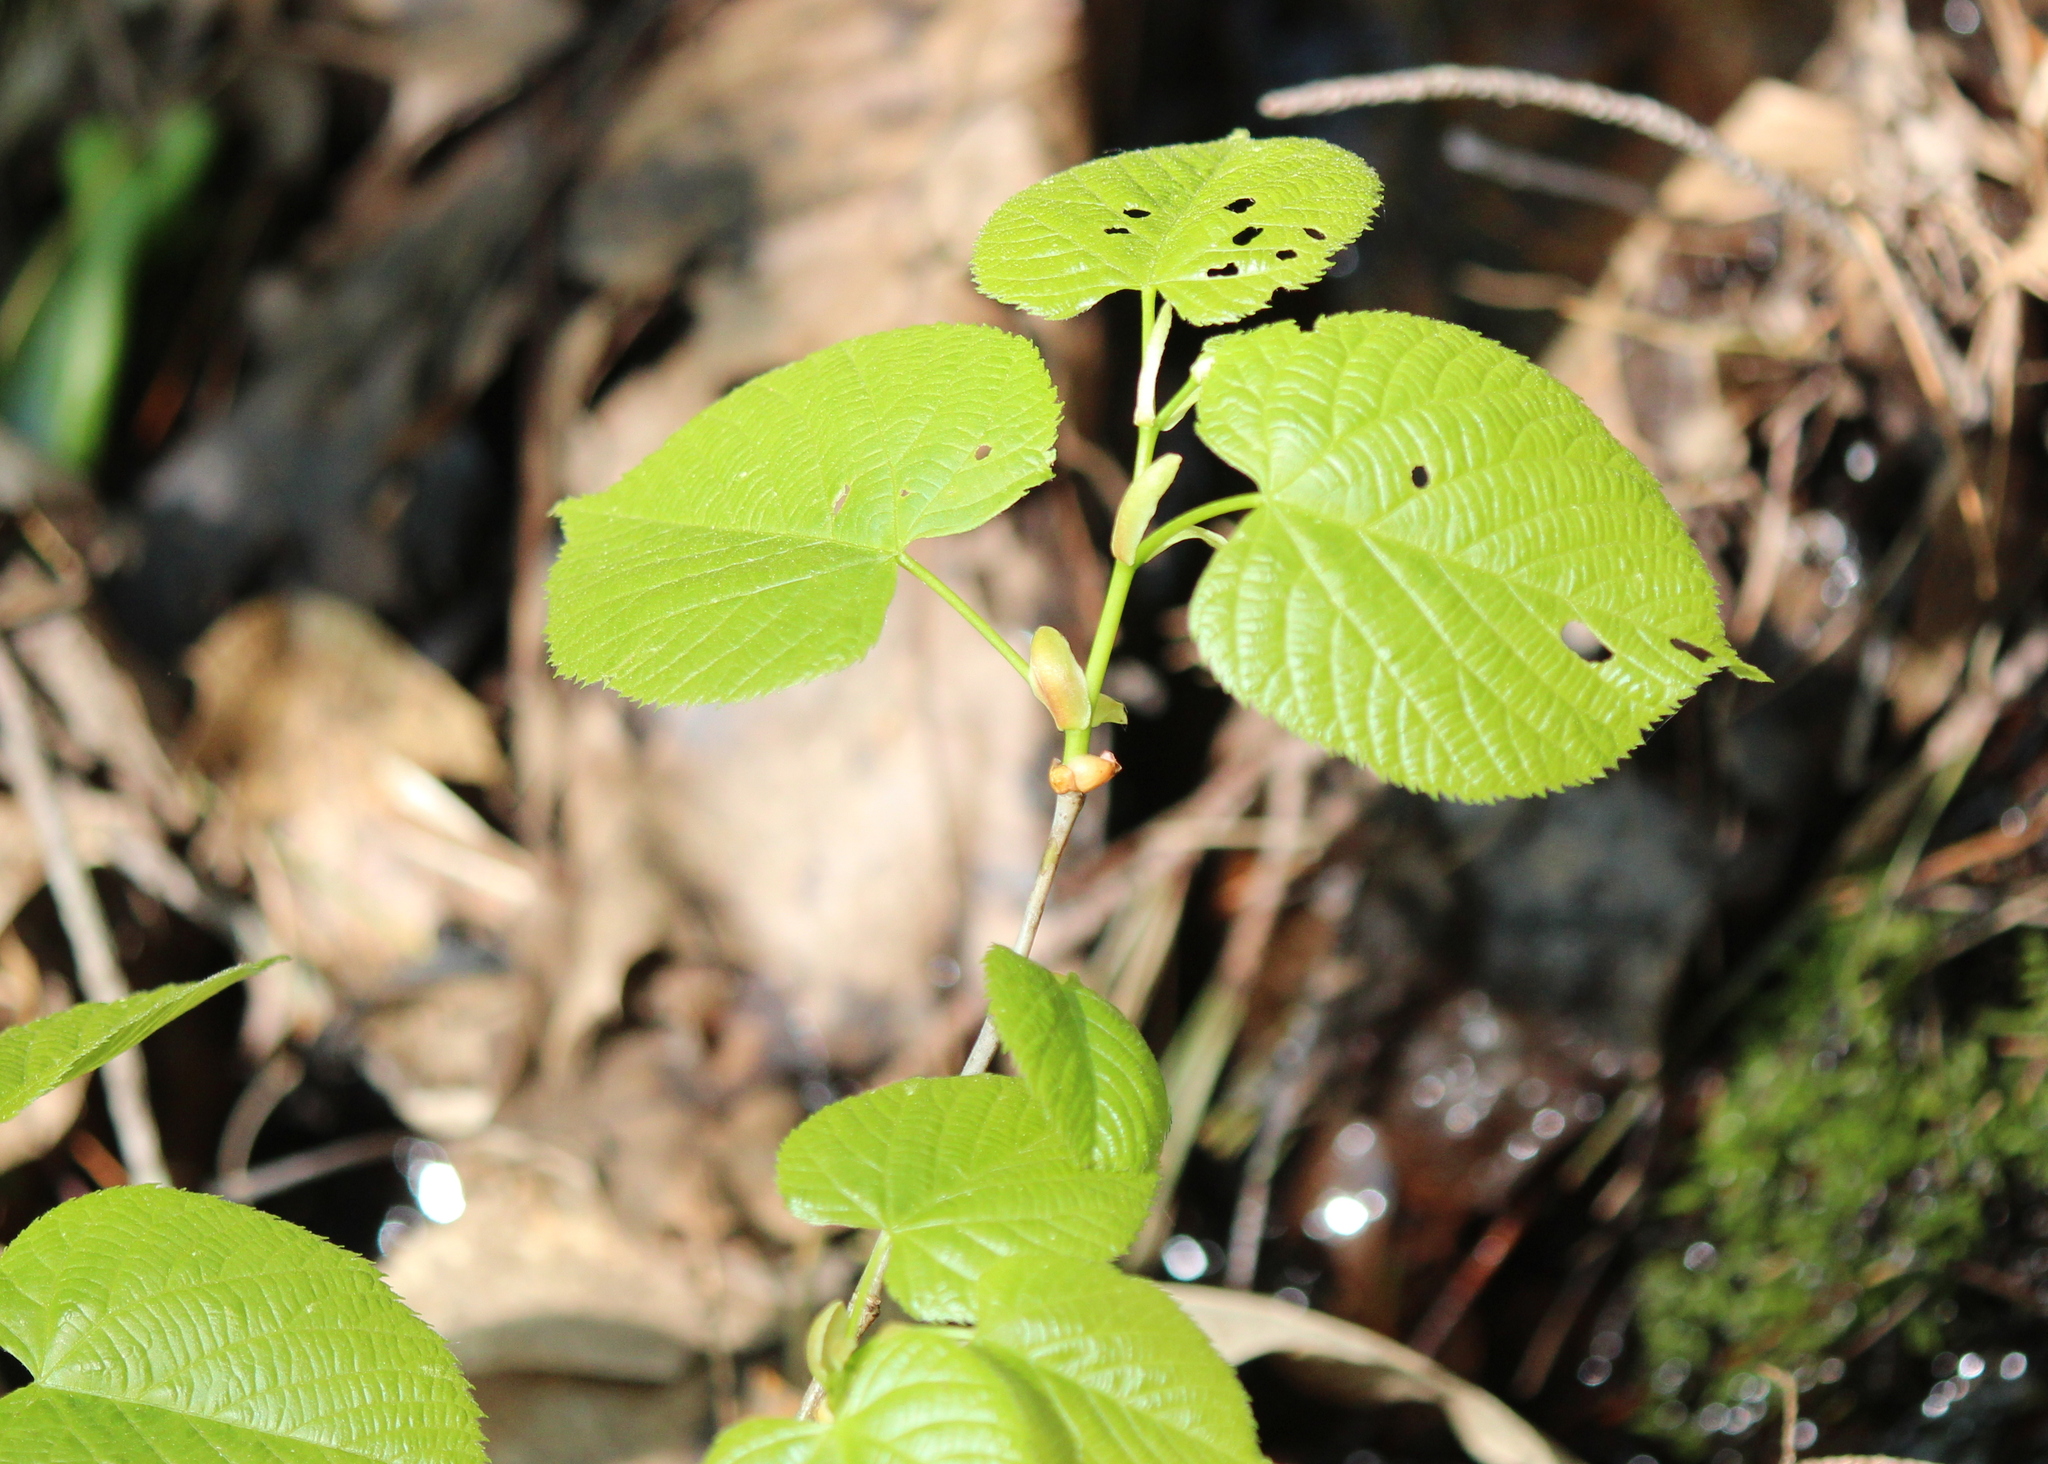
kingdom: Plantae
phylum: Tracheophyta
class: Magnoliopsida
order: Malvales
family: Malvaceae
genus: Tilia
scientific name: Tilia americana
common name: Basswood
